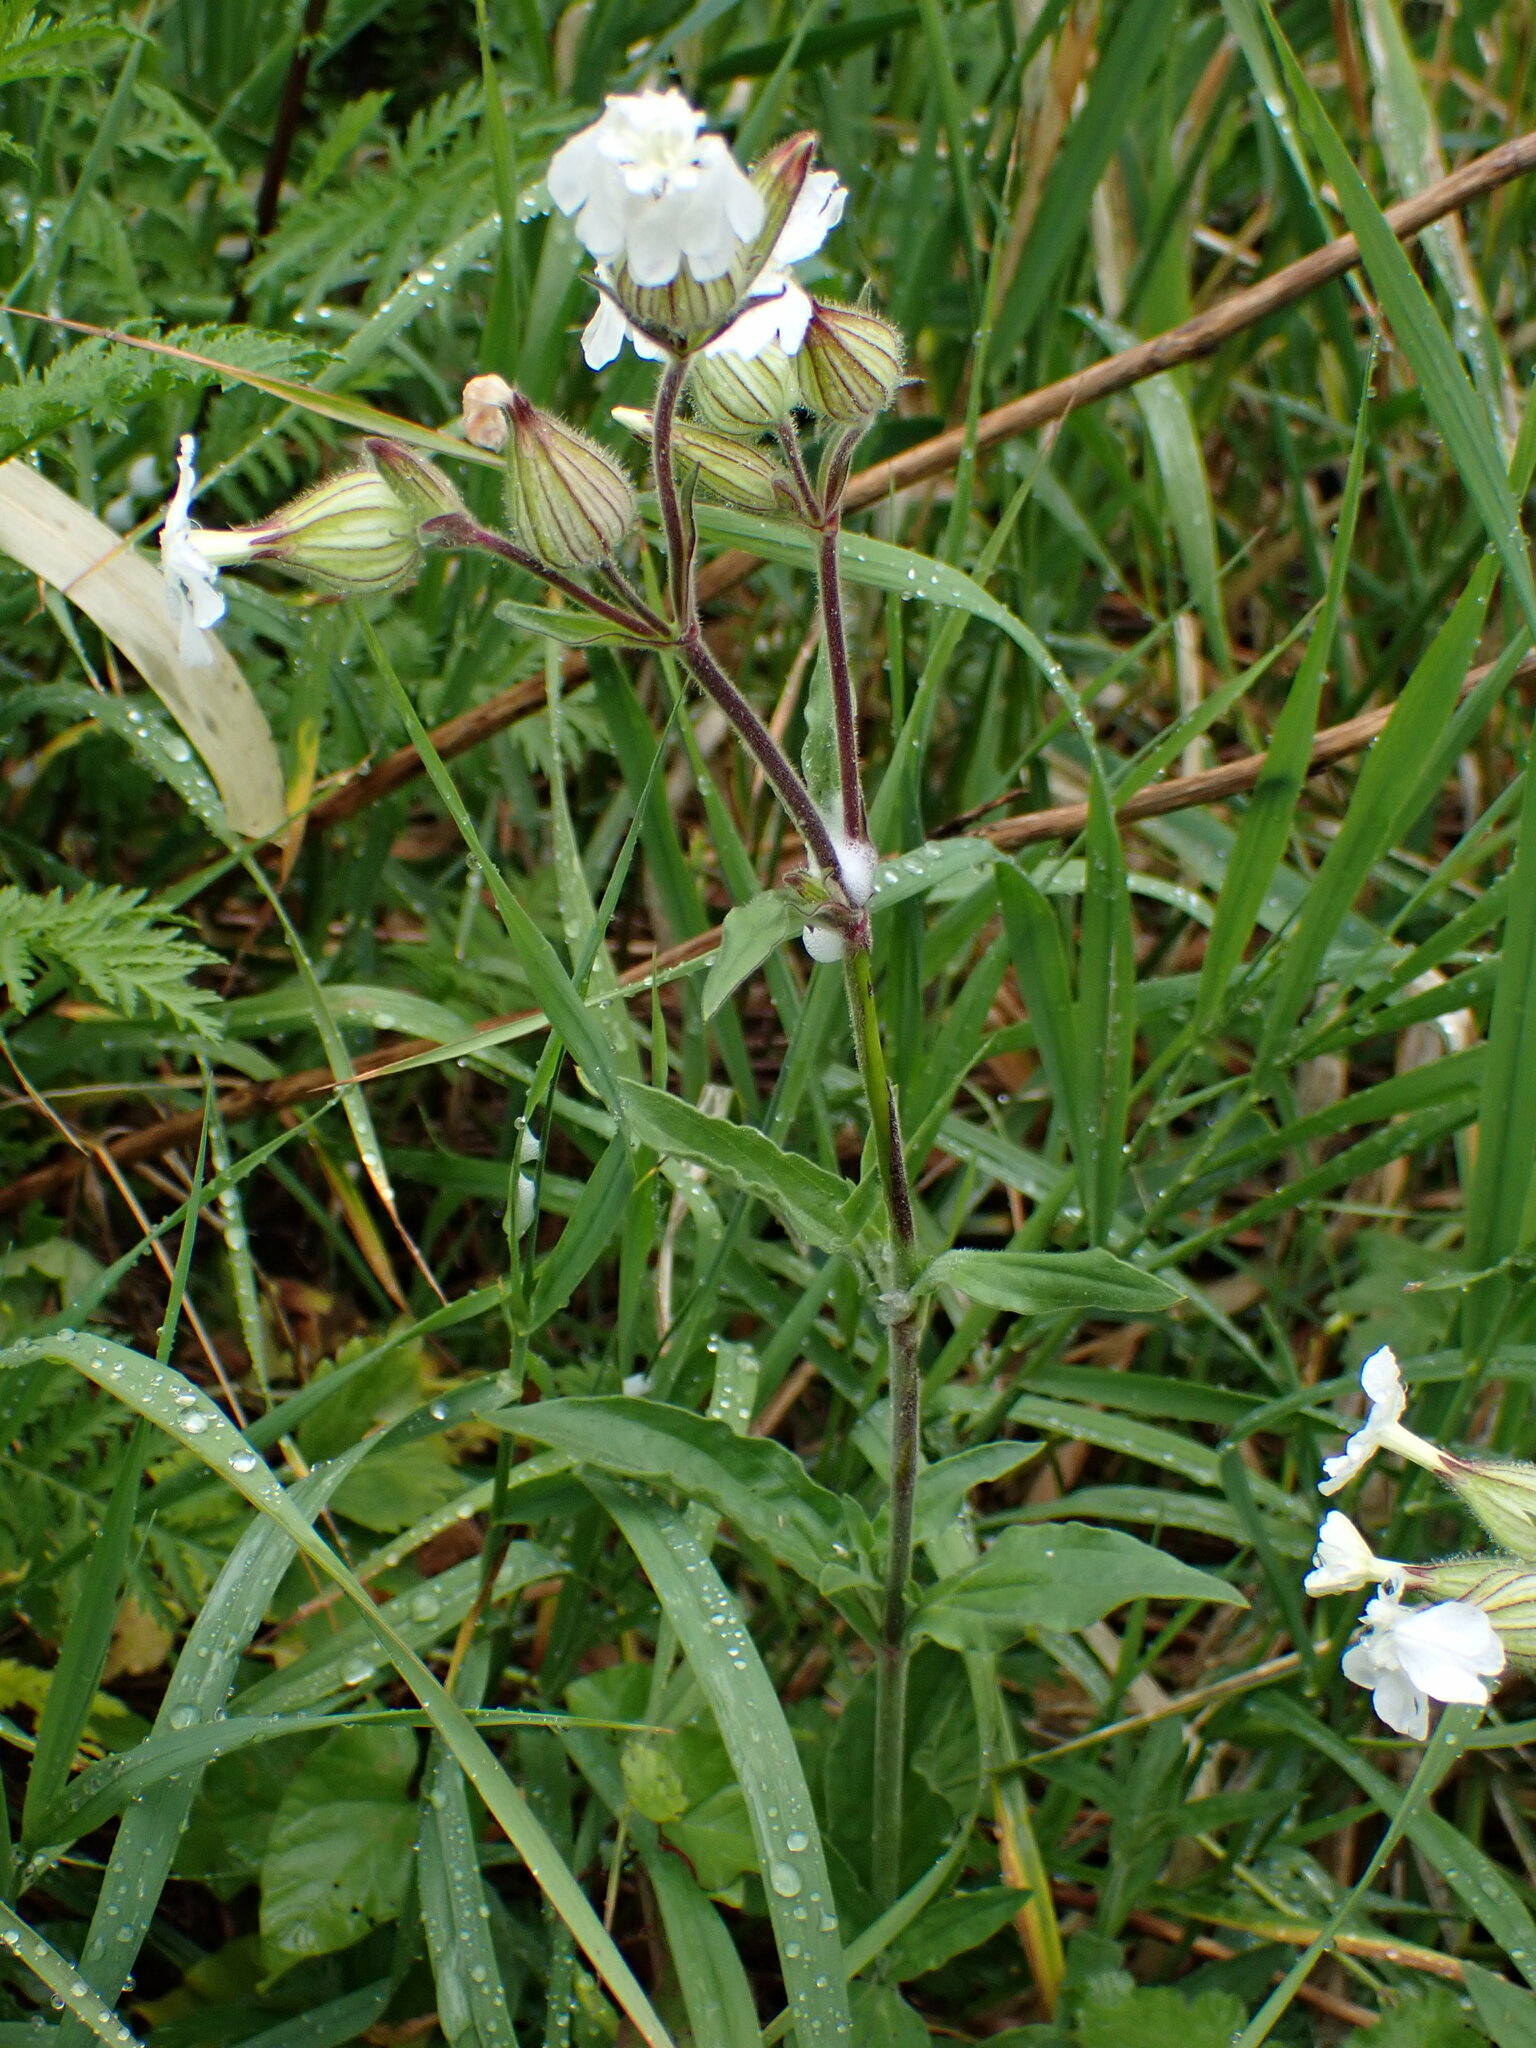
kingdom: Plantae
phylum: Tracheophyta
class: Magnoliopsida
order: Caryophyllales
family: Caryophyllaceae
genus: Silene
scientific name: Silene latifolia
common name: White campion
